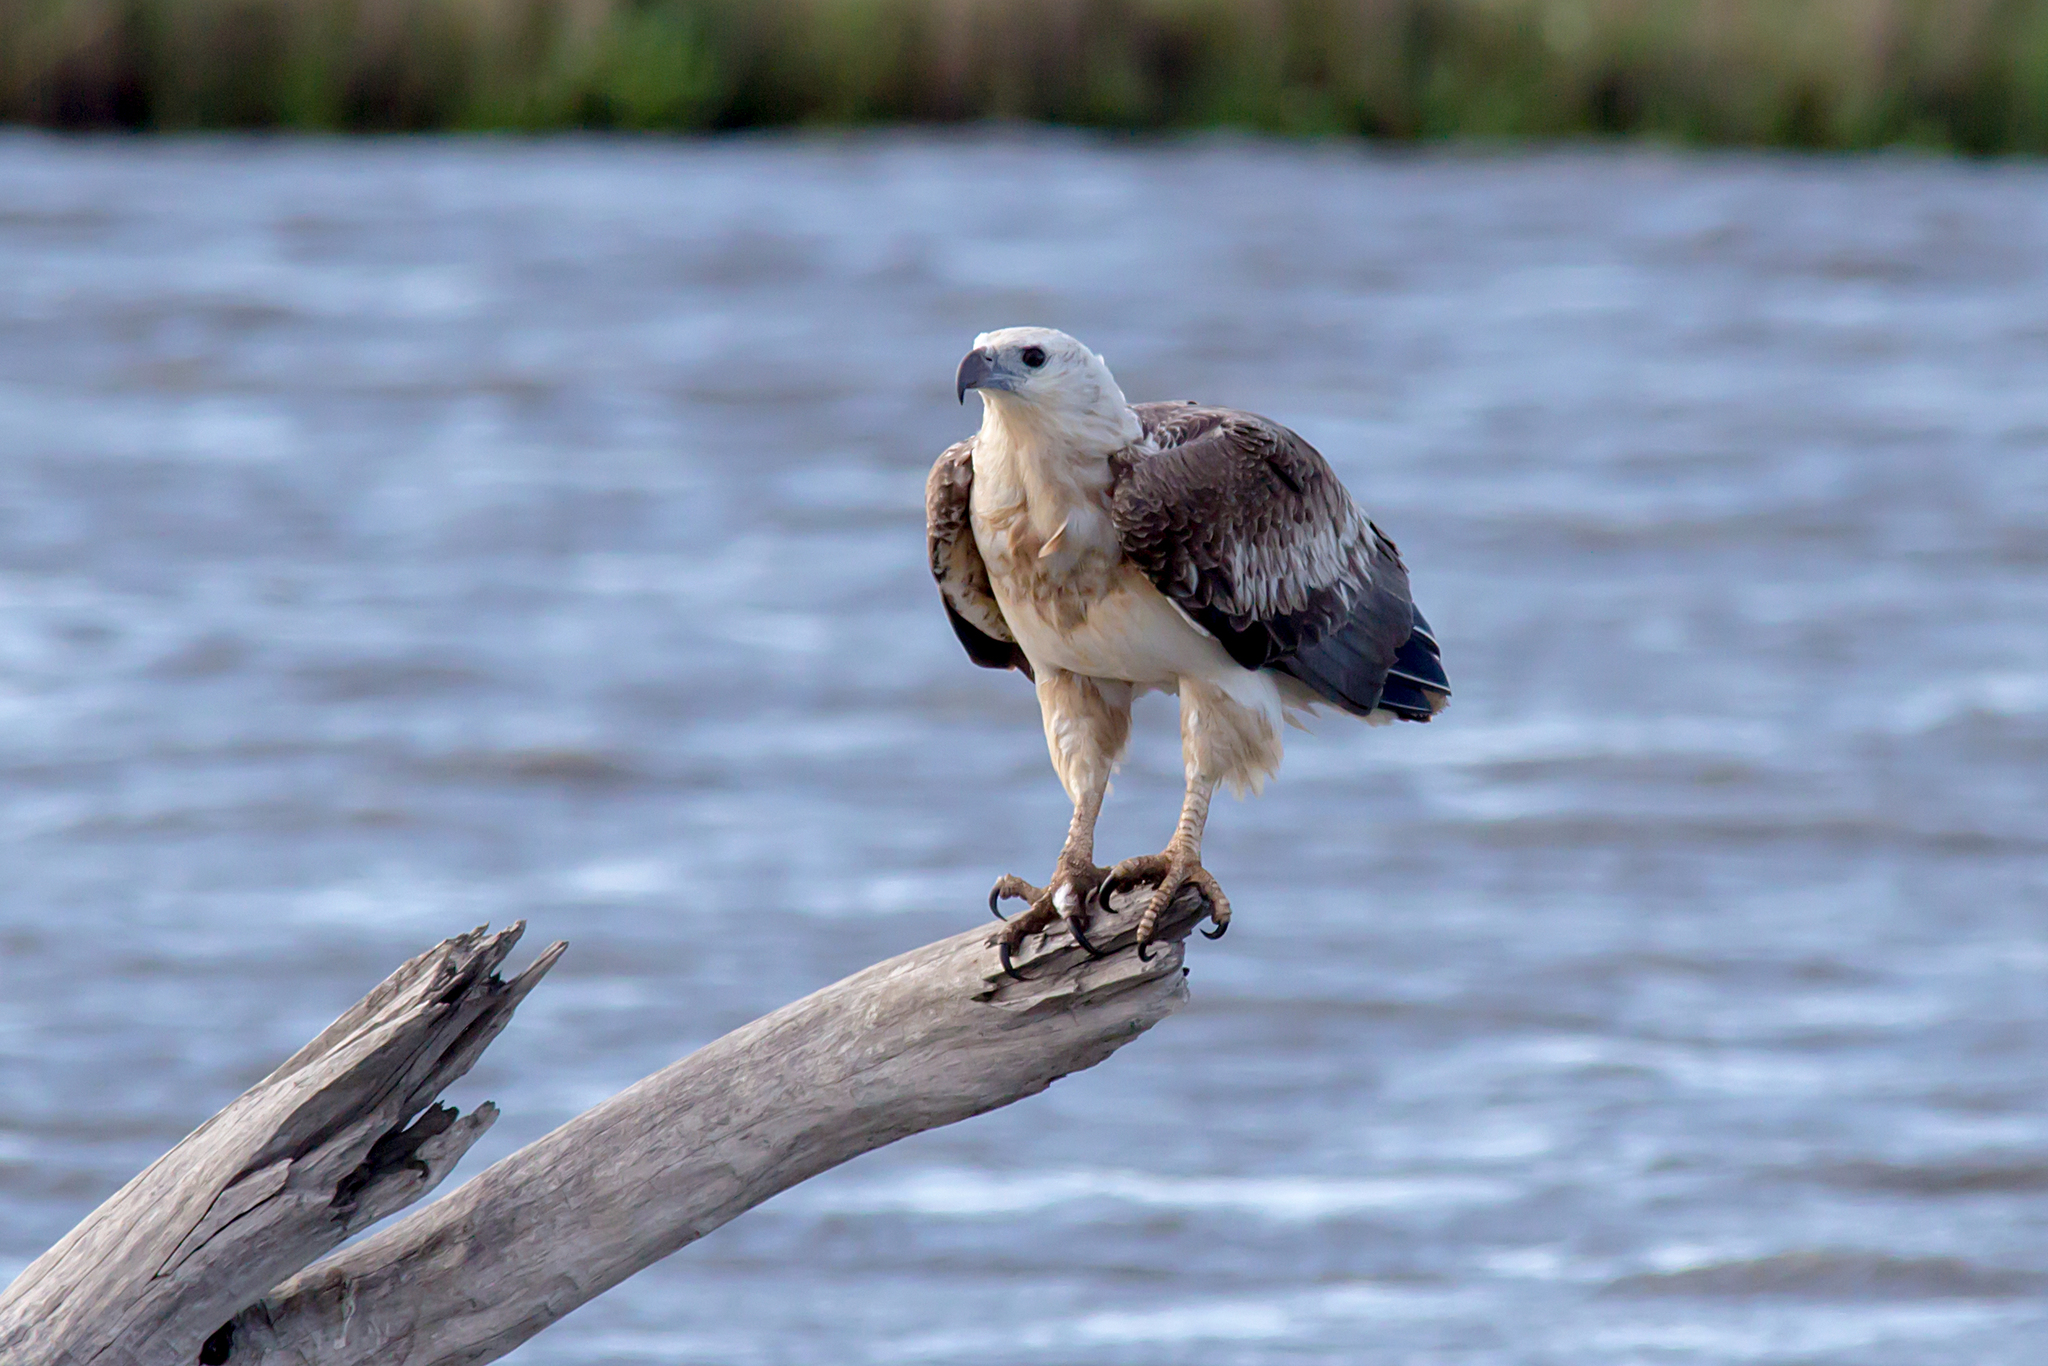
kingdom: Animalia
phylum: Chordata
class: Aves
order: Accipitriformes
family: Accipitridae
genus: Haliaeetus
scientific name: Haliaeetus leucogaster
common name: White-bellied sea eagle
